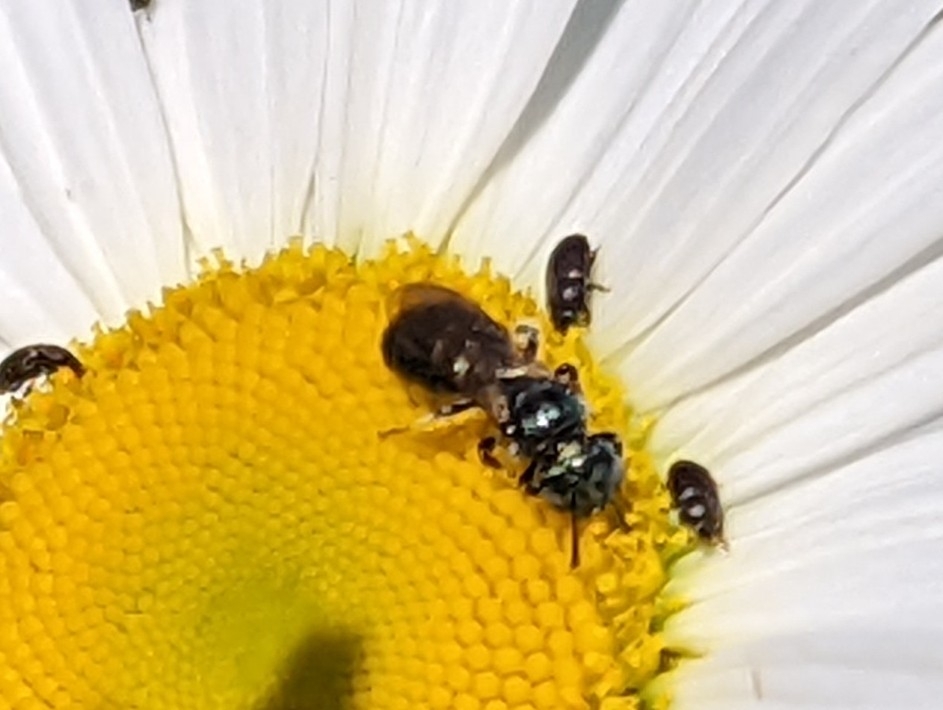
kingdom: Animalia
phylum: Arthropoda
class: Insecta
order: Hymenoptera
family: Apidae
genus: Zadontomerus
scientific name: Zadontomerus
